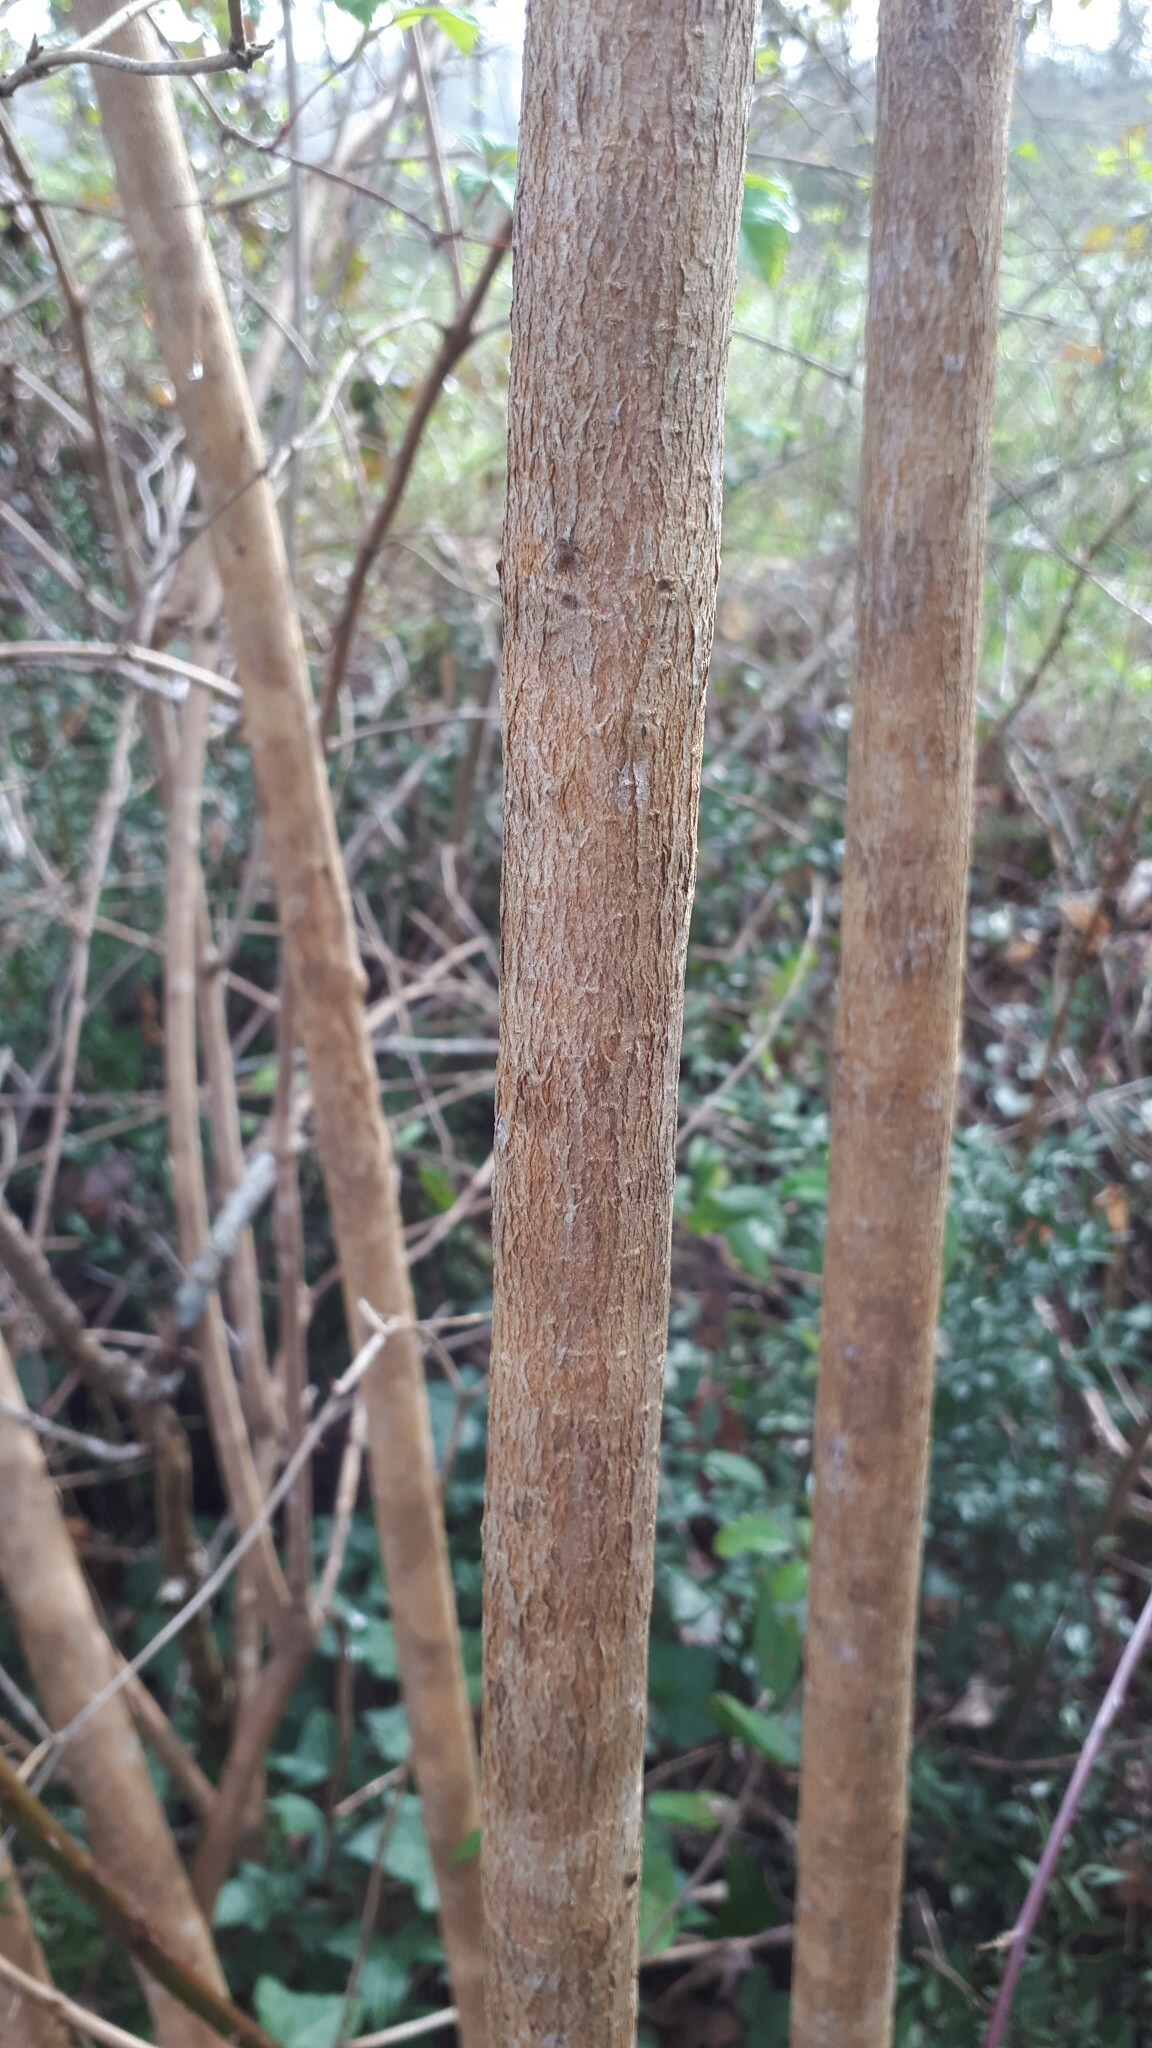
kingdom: Plantae
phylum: Tracheophyta
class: Magnoliopsida
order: Dipsacales
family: Viburnaceae
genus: Viburnum
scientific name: Viburnum opulus
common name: Guelder-rose
